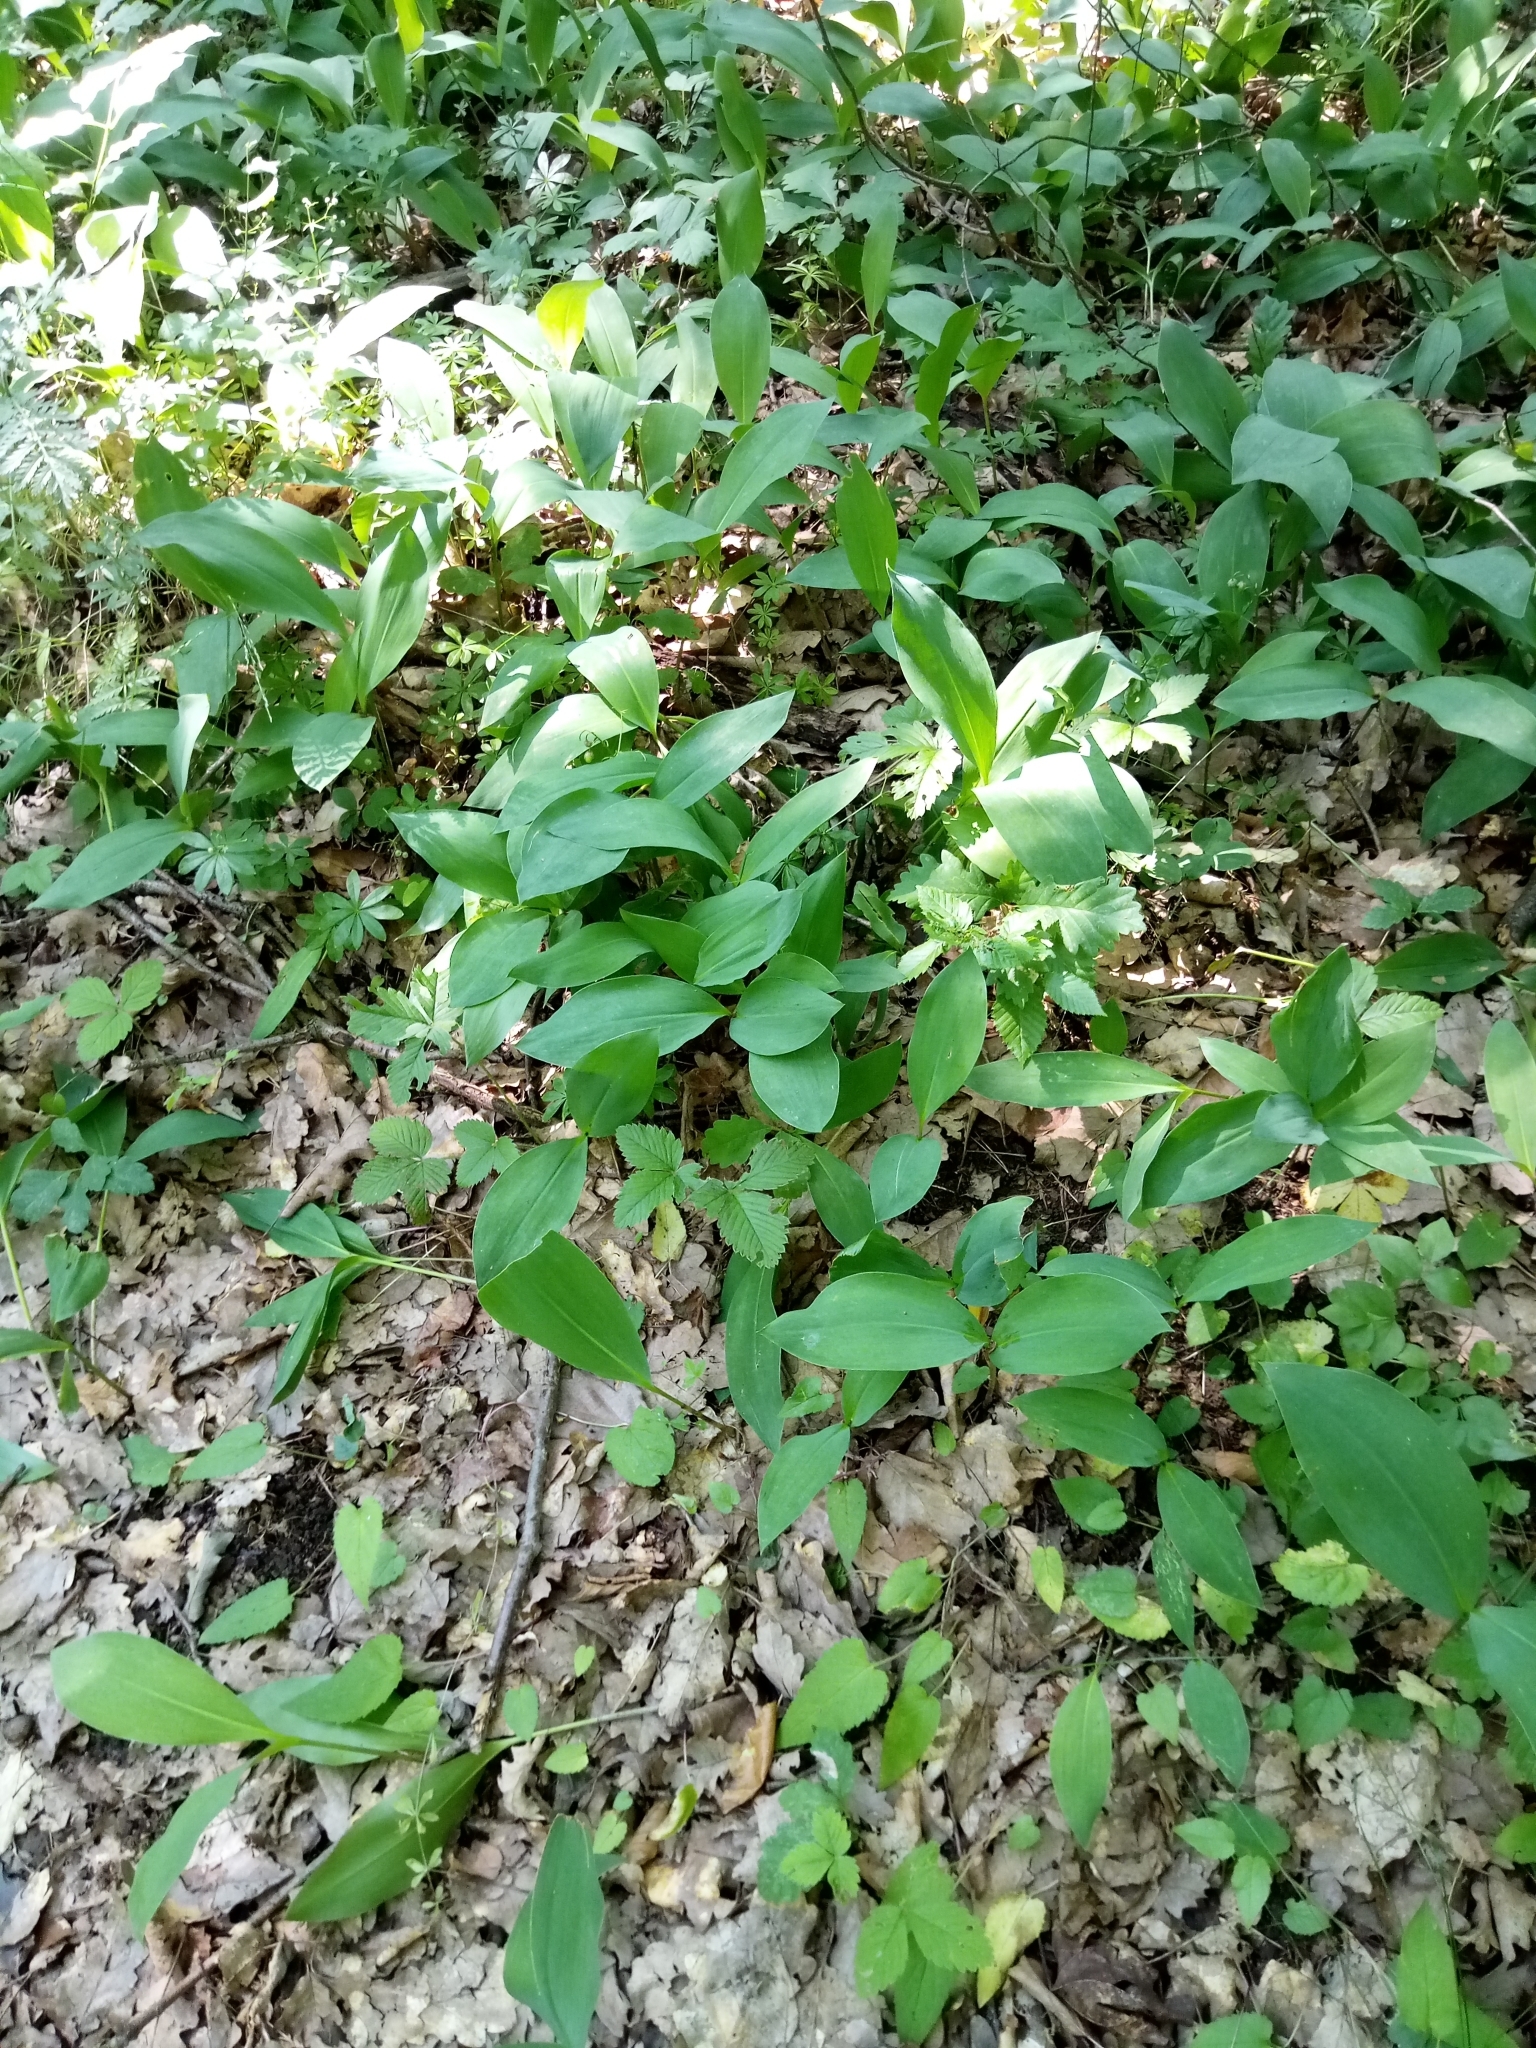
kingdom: Plantae
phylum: Tracheophyta
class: Liliopsida
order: Asparagales
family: Asparagaceae
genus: Convallaria
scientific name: Convallaria majalis
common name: Lily-of-the-valley
